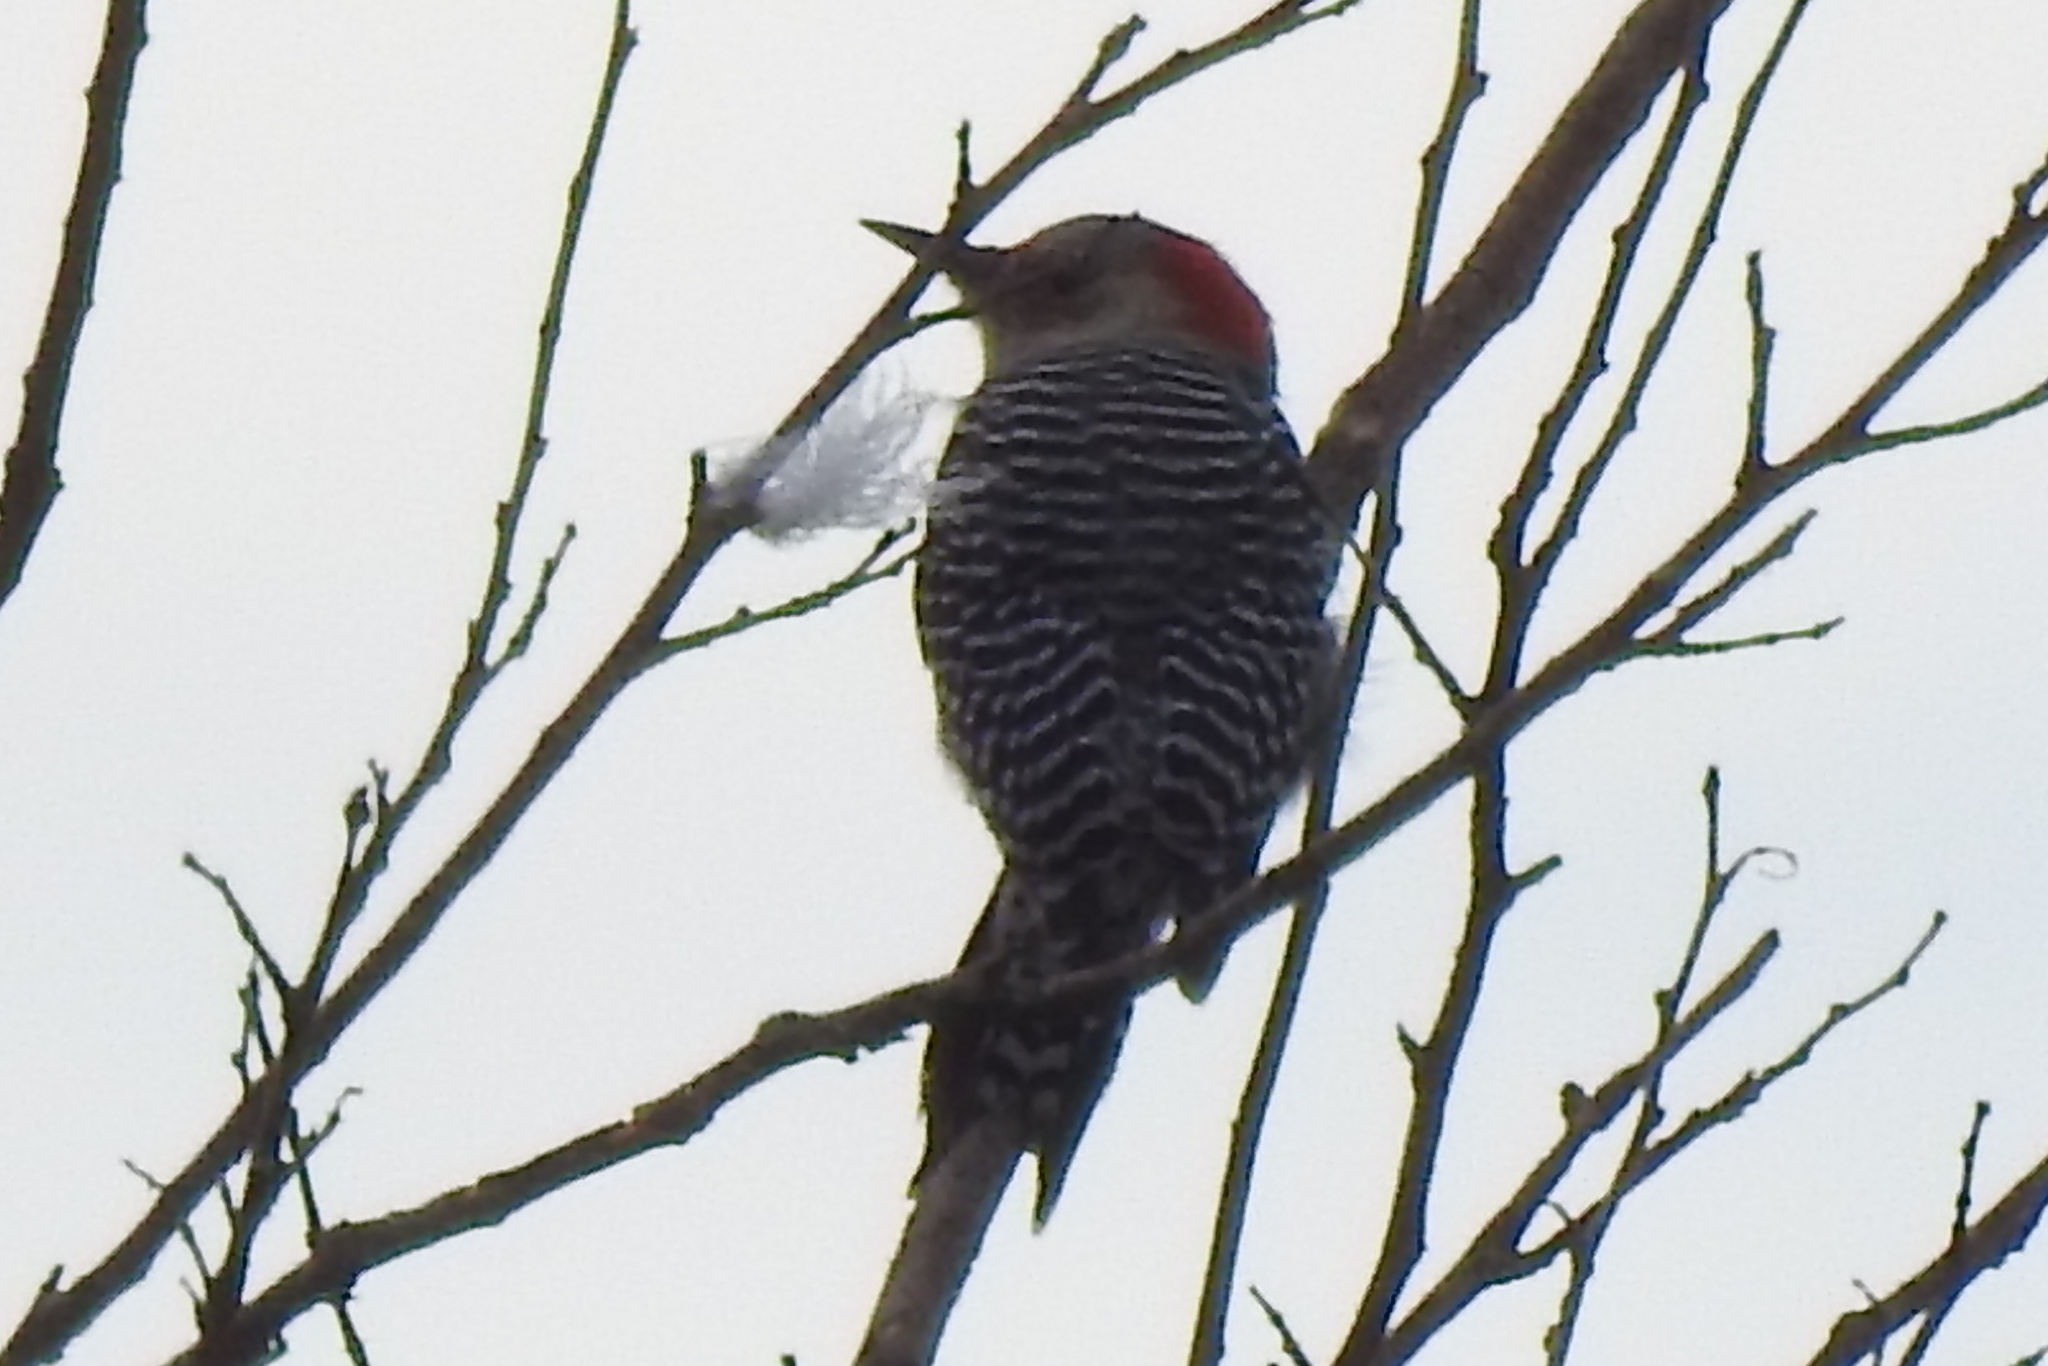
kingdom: Animalia
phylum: Chordata
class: Aves
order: Piciformes
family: Picidae
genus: Melanerpes
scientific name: Melanerpes carolinus
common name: Red-bellied woodpecker
